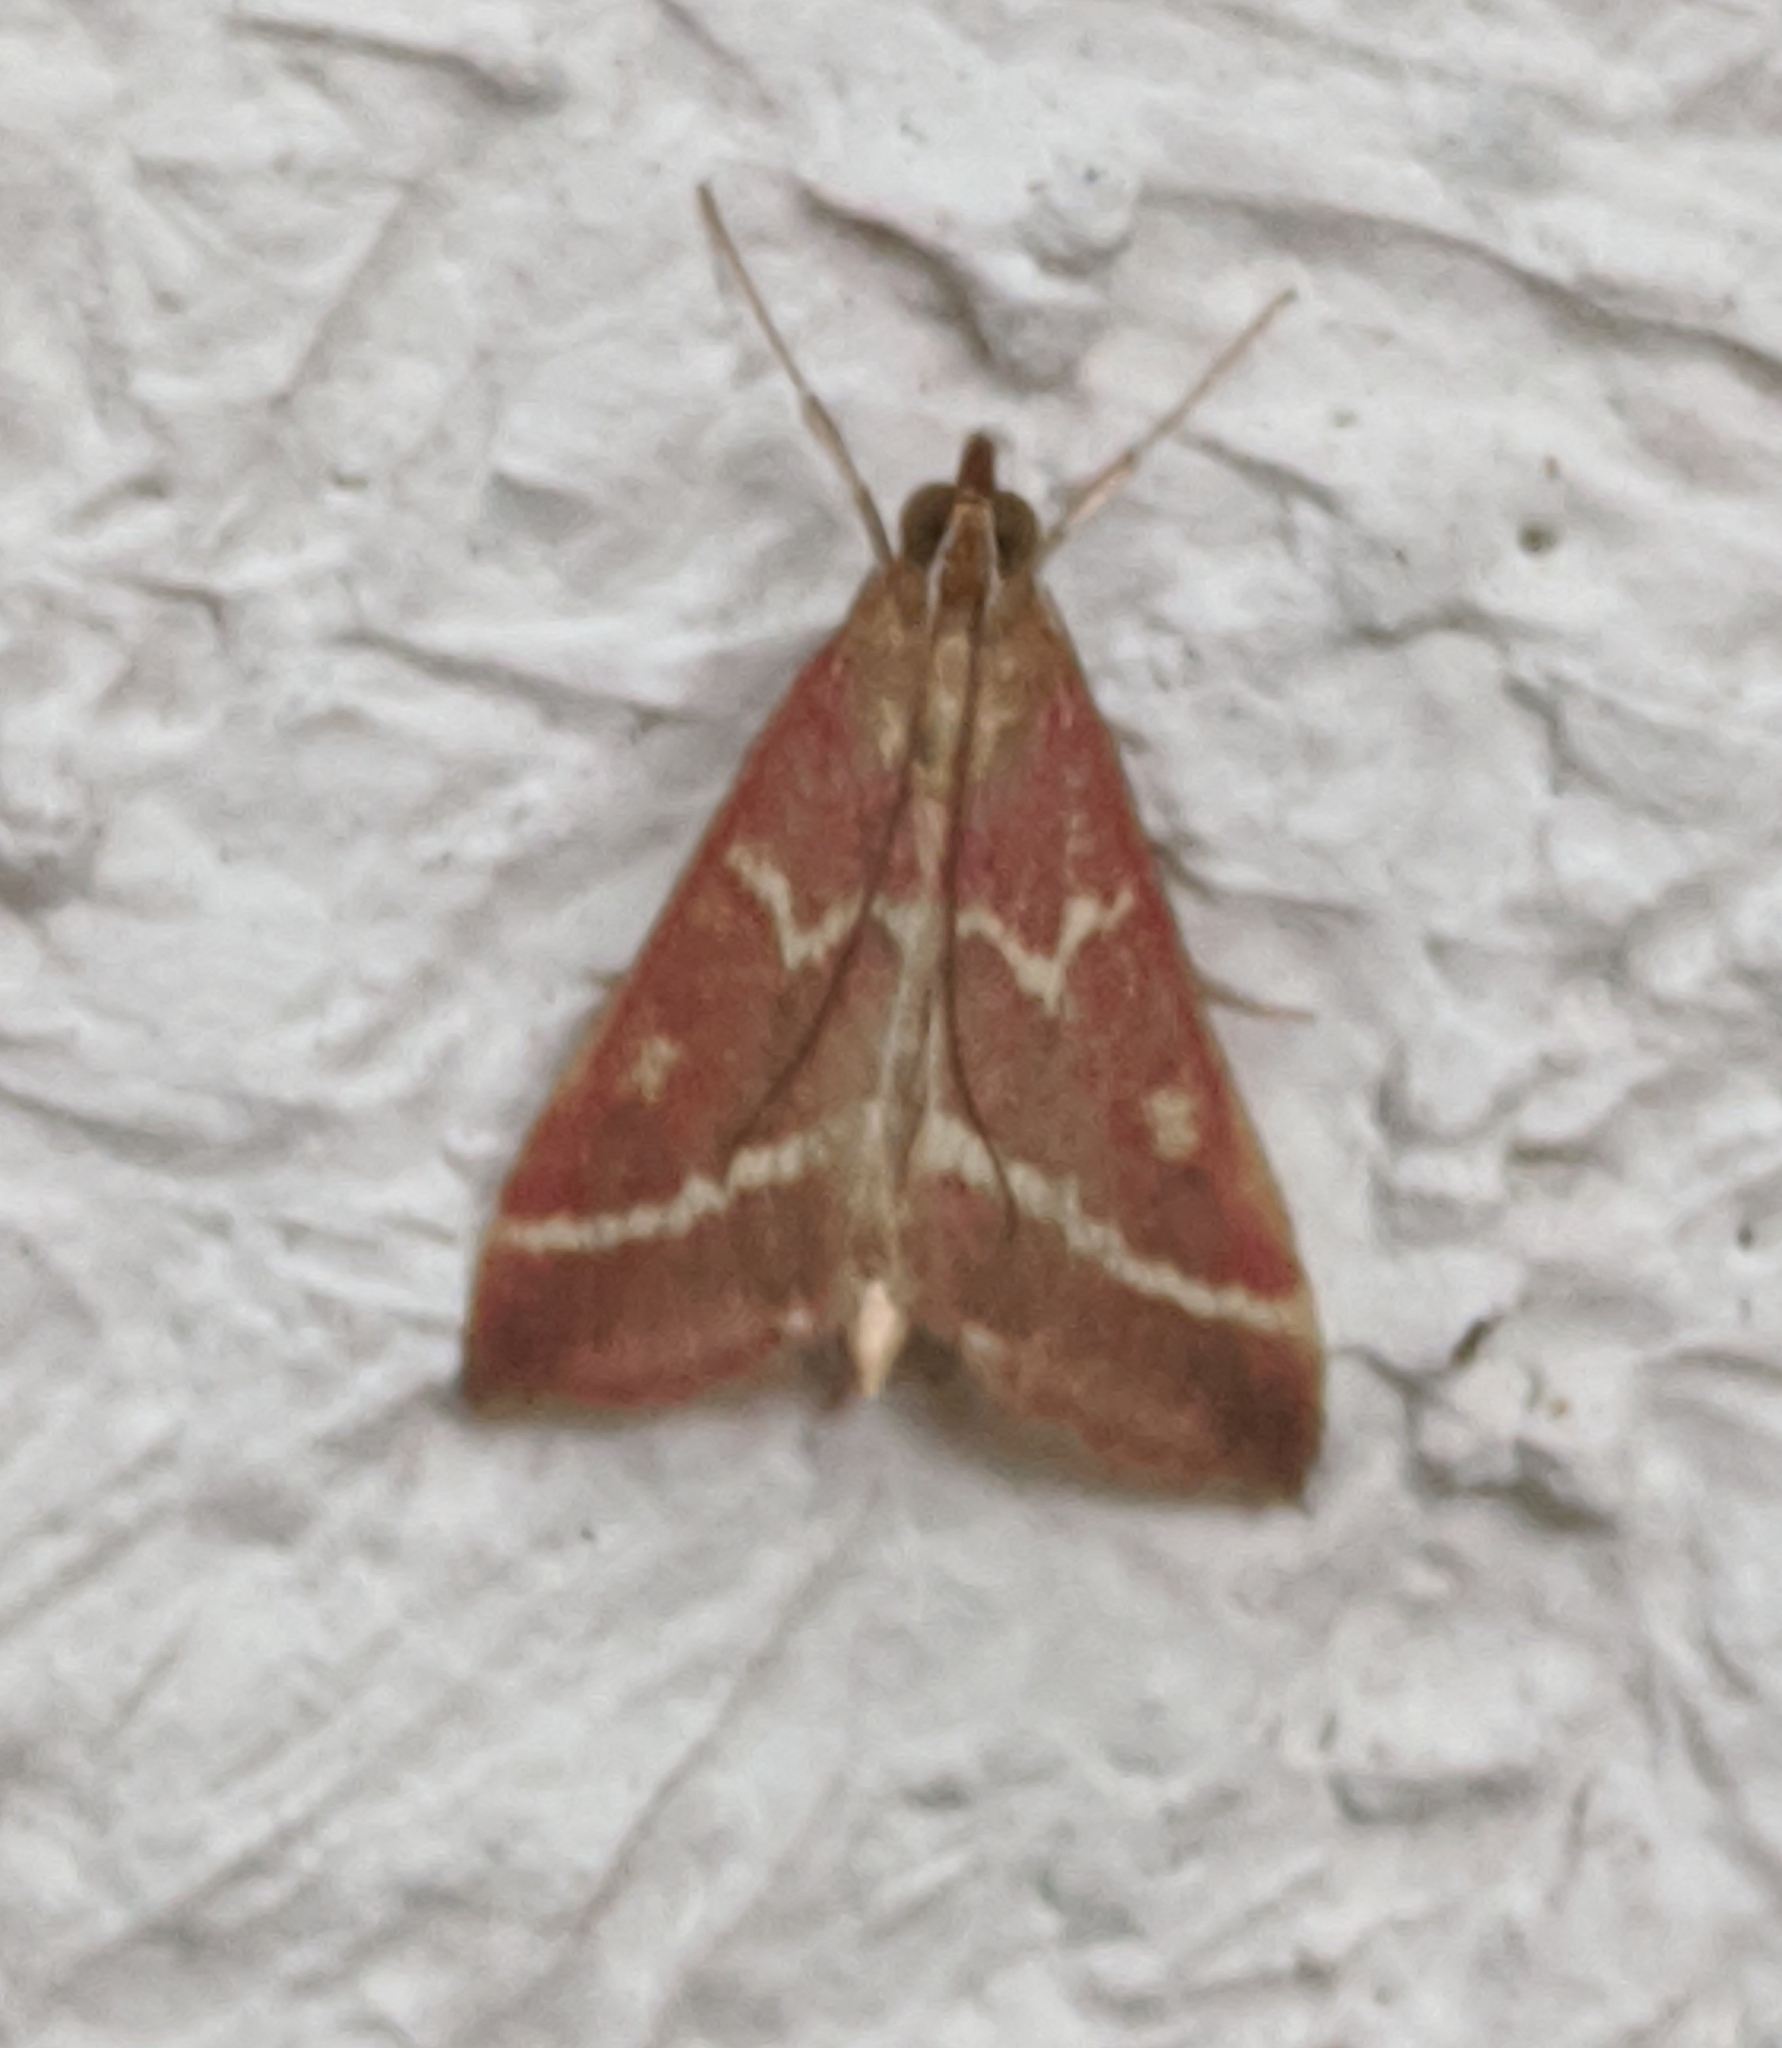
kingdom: Animalia
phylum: Arthropoda
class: Insecta
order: Lepidoptera
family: Crambidae
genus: Pyrausta
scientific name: Pyrausta volupialis
